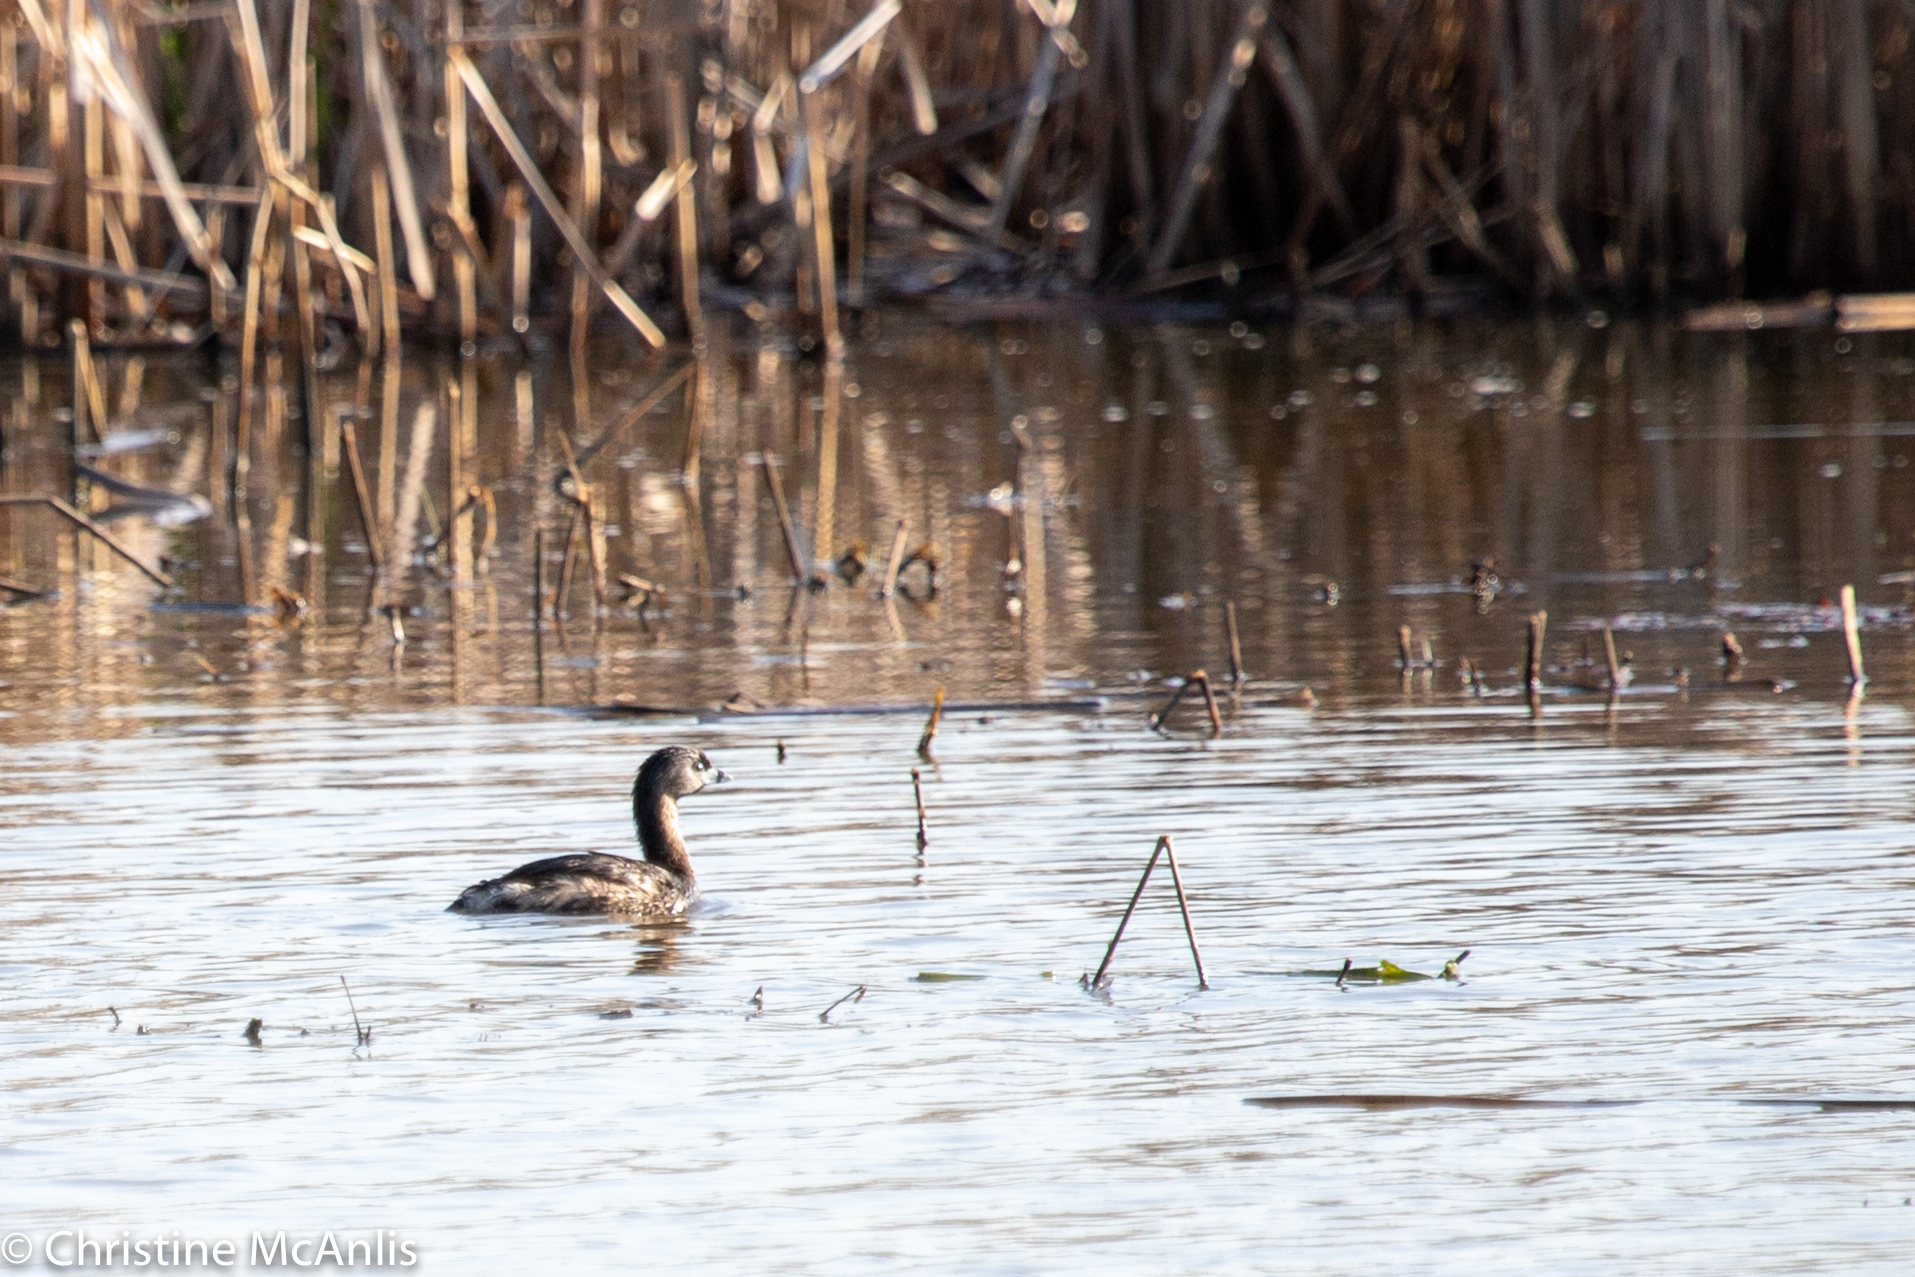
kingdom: Animalia
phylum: Chordata
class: Aves
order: Podicipediformes
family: Podicipedidae
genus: Podilymbus
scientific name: Podilymbus podiceps
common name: Pied-billed grebe
